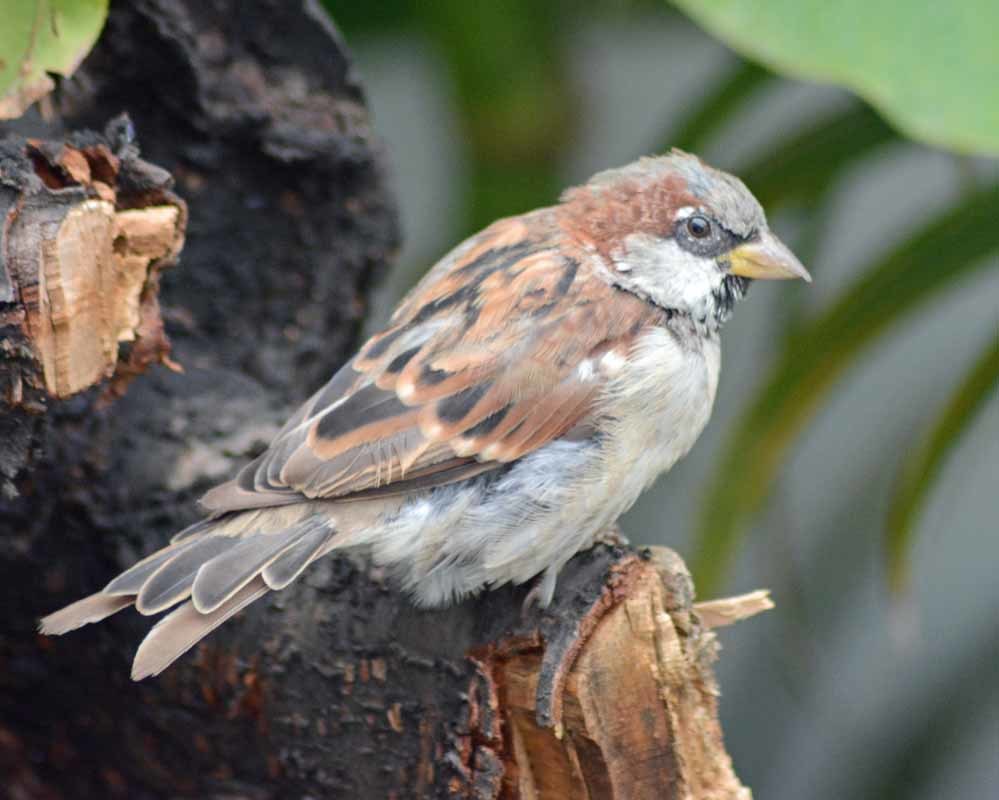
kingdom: Animalia
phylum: Chordata
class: Aves
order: Passeriformes
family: Passeridae
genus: Passer
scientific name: Passer domesticus
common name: House sparrow
